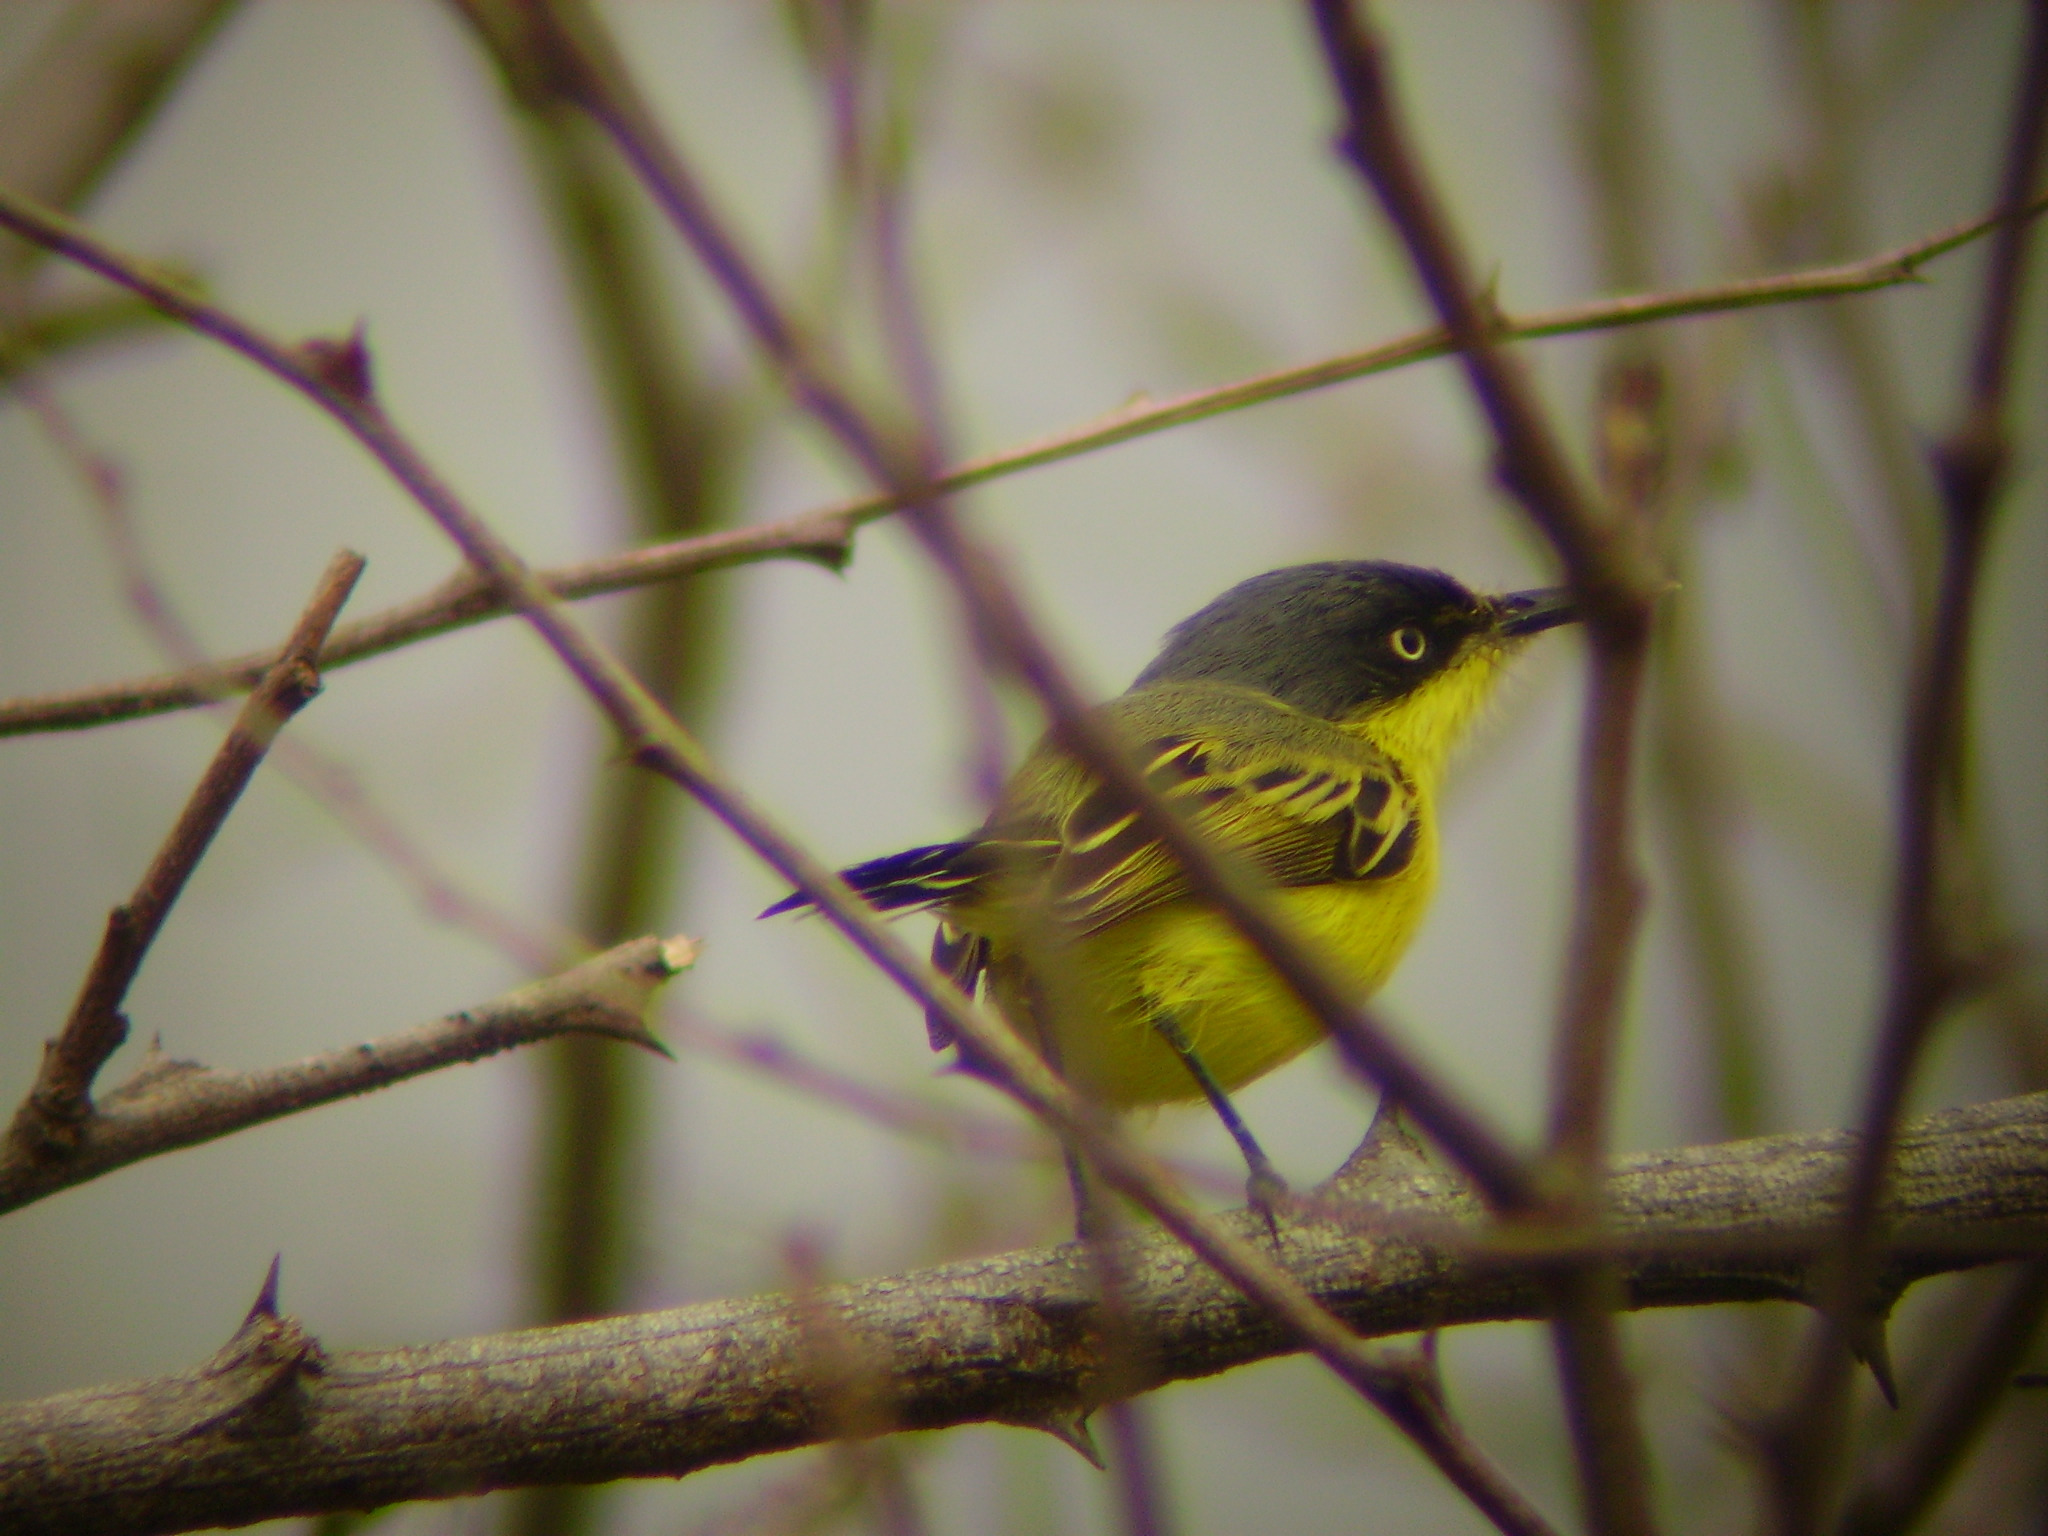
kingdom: Animalia
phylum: Chordata
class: Aves
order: Passeriformes
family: Tyrannidae
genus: Todirostrum
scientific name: Todirostrum cinereum
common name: Common tody-flycatcher
